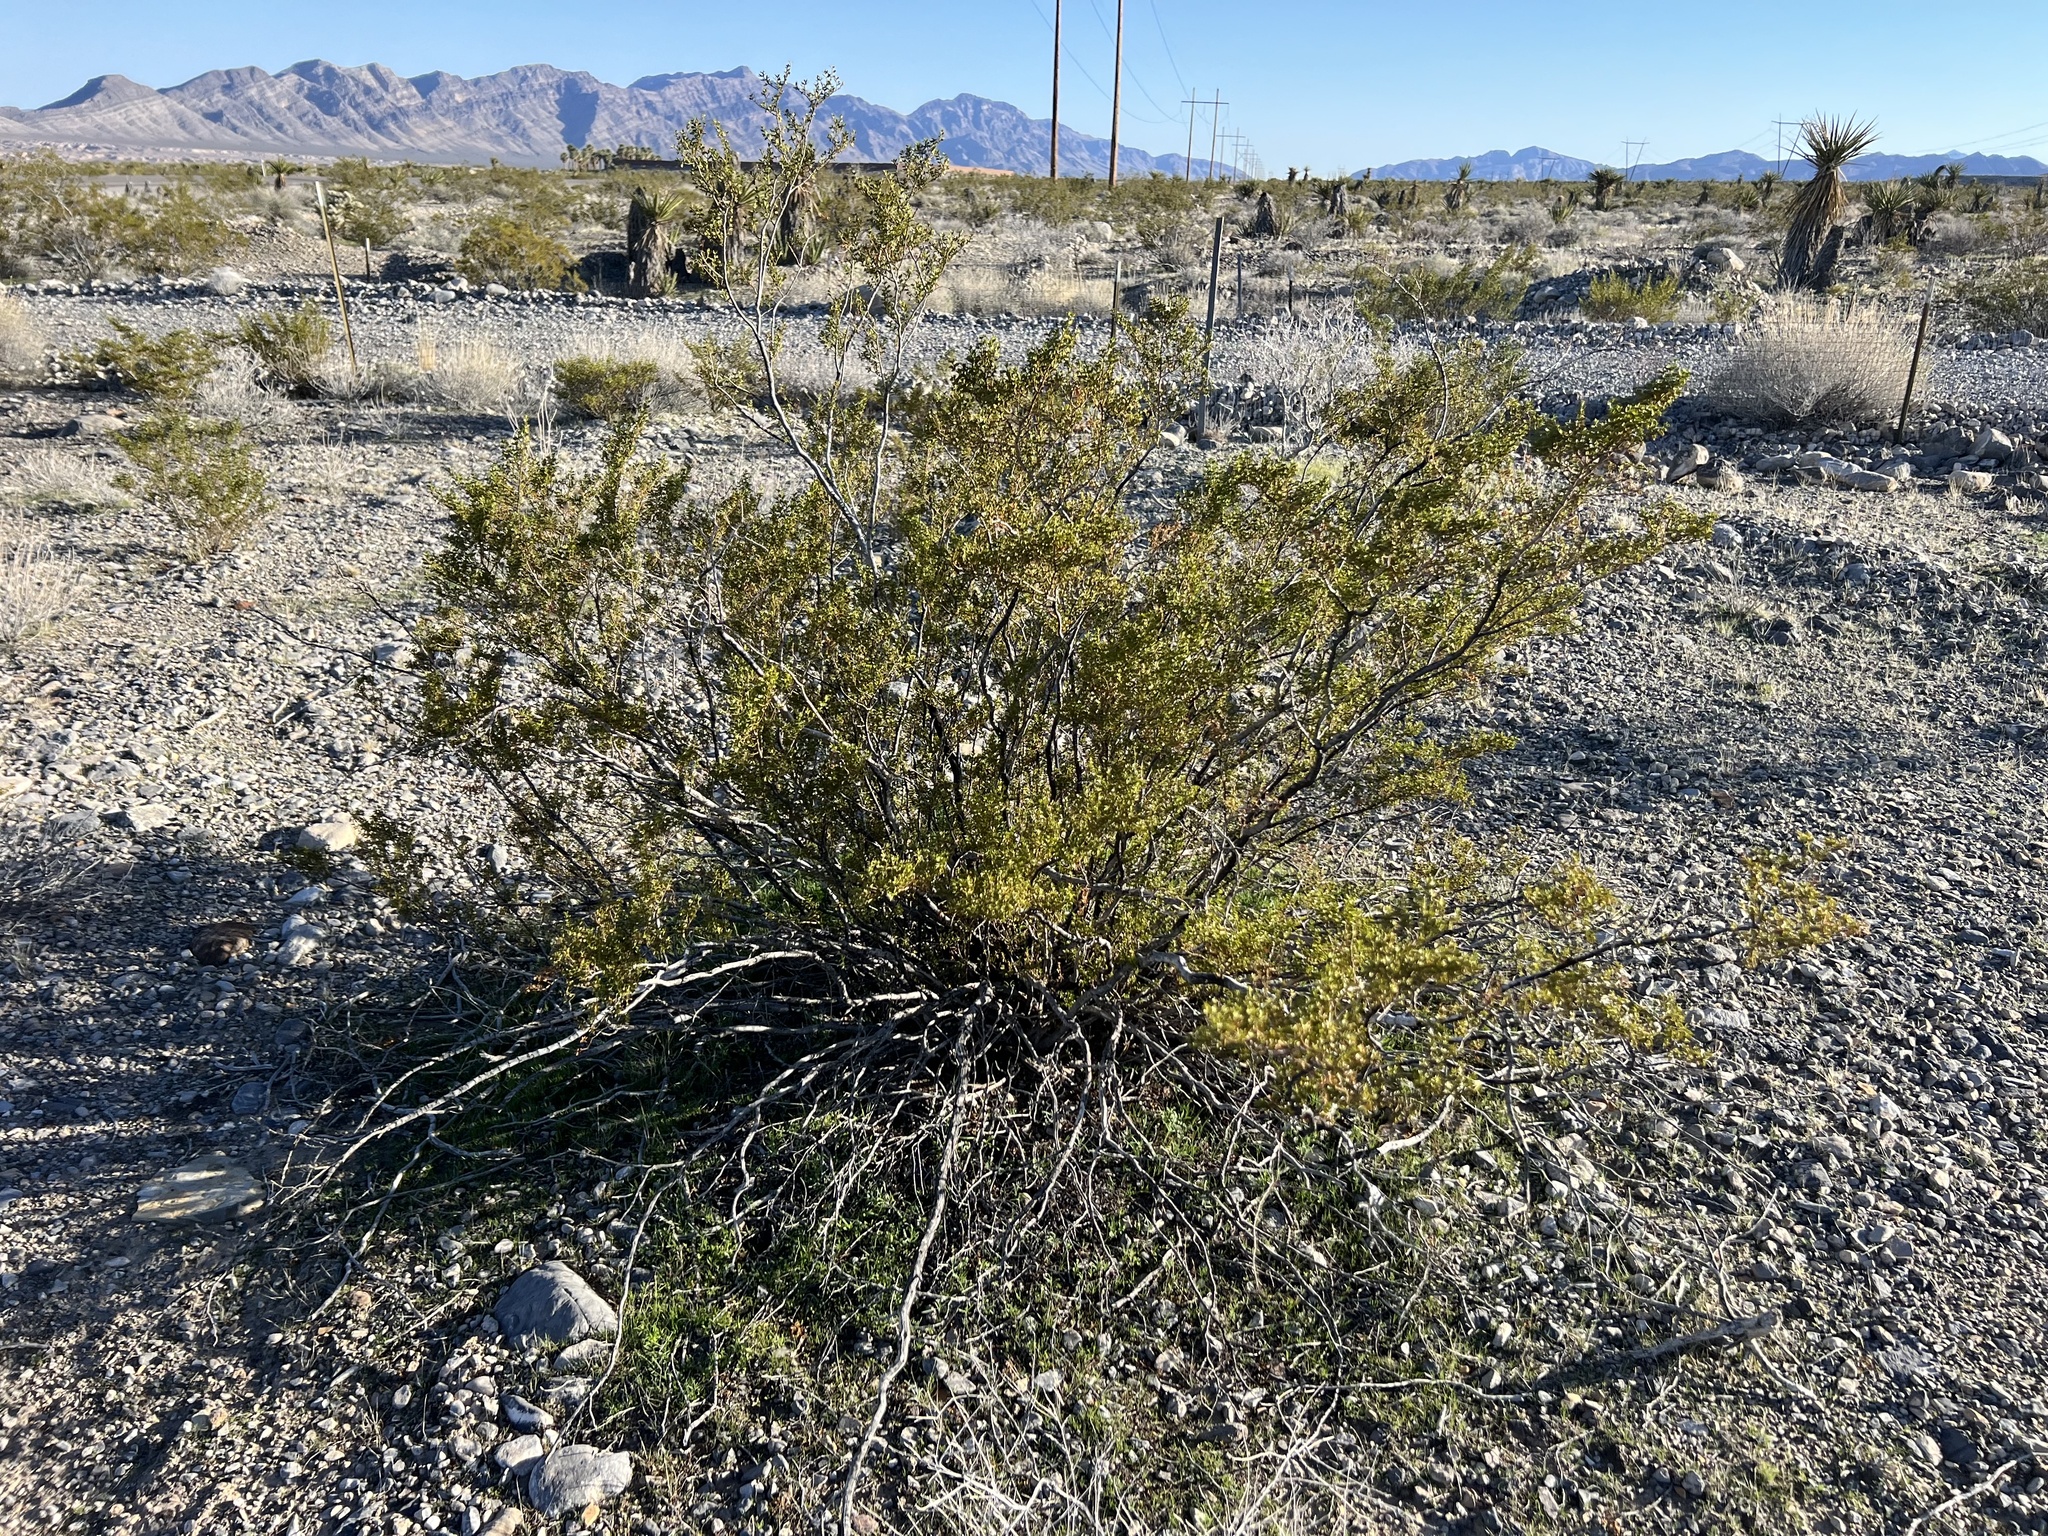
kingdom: Plantae
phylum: Tracheophyta
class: Magnoliopsida
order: Zygophyllales
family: Zygophyllaceae
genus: Larrea
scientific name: Larrea tridentata
